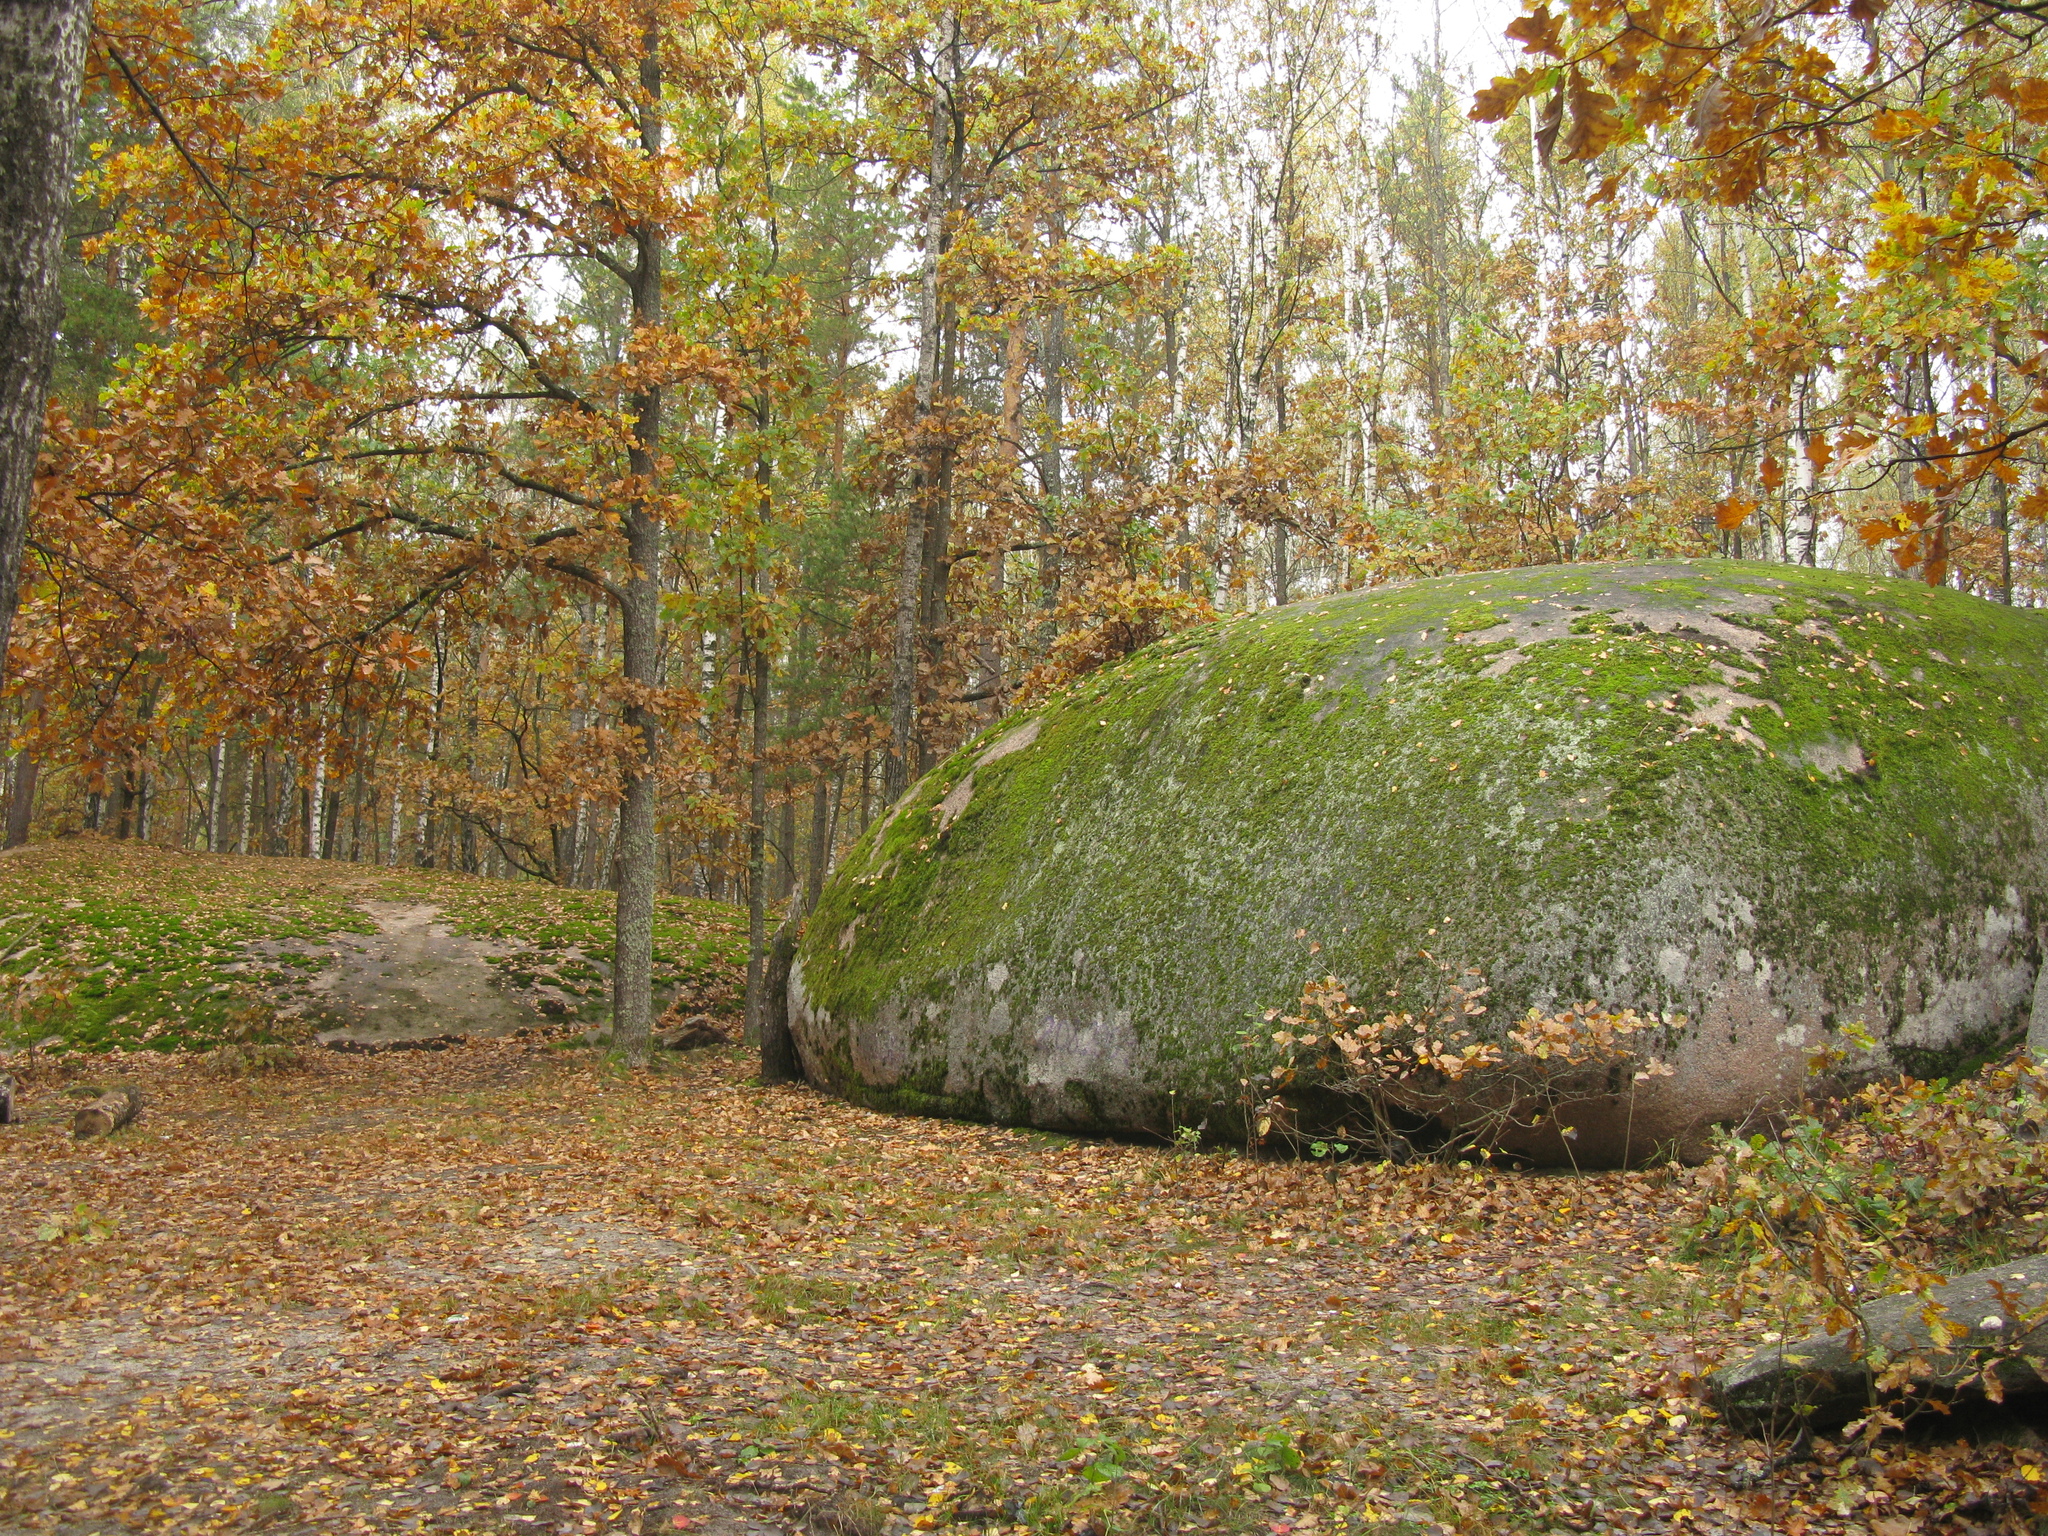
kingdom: Plantae
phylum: Tracheophyta
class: Magnoliopsida
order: Fagales
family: Fagaceae
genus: Quercus
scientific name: Quercus robur
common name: Pedunculate oak
